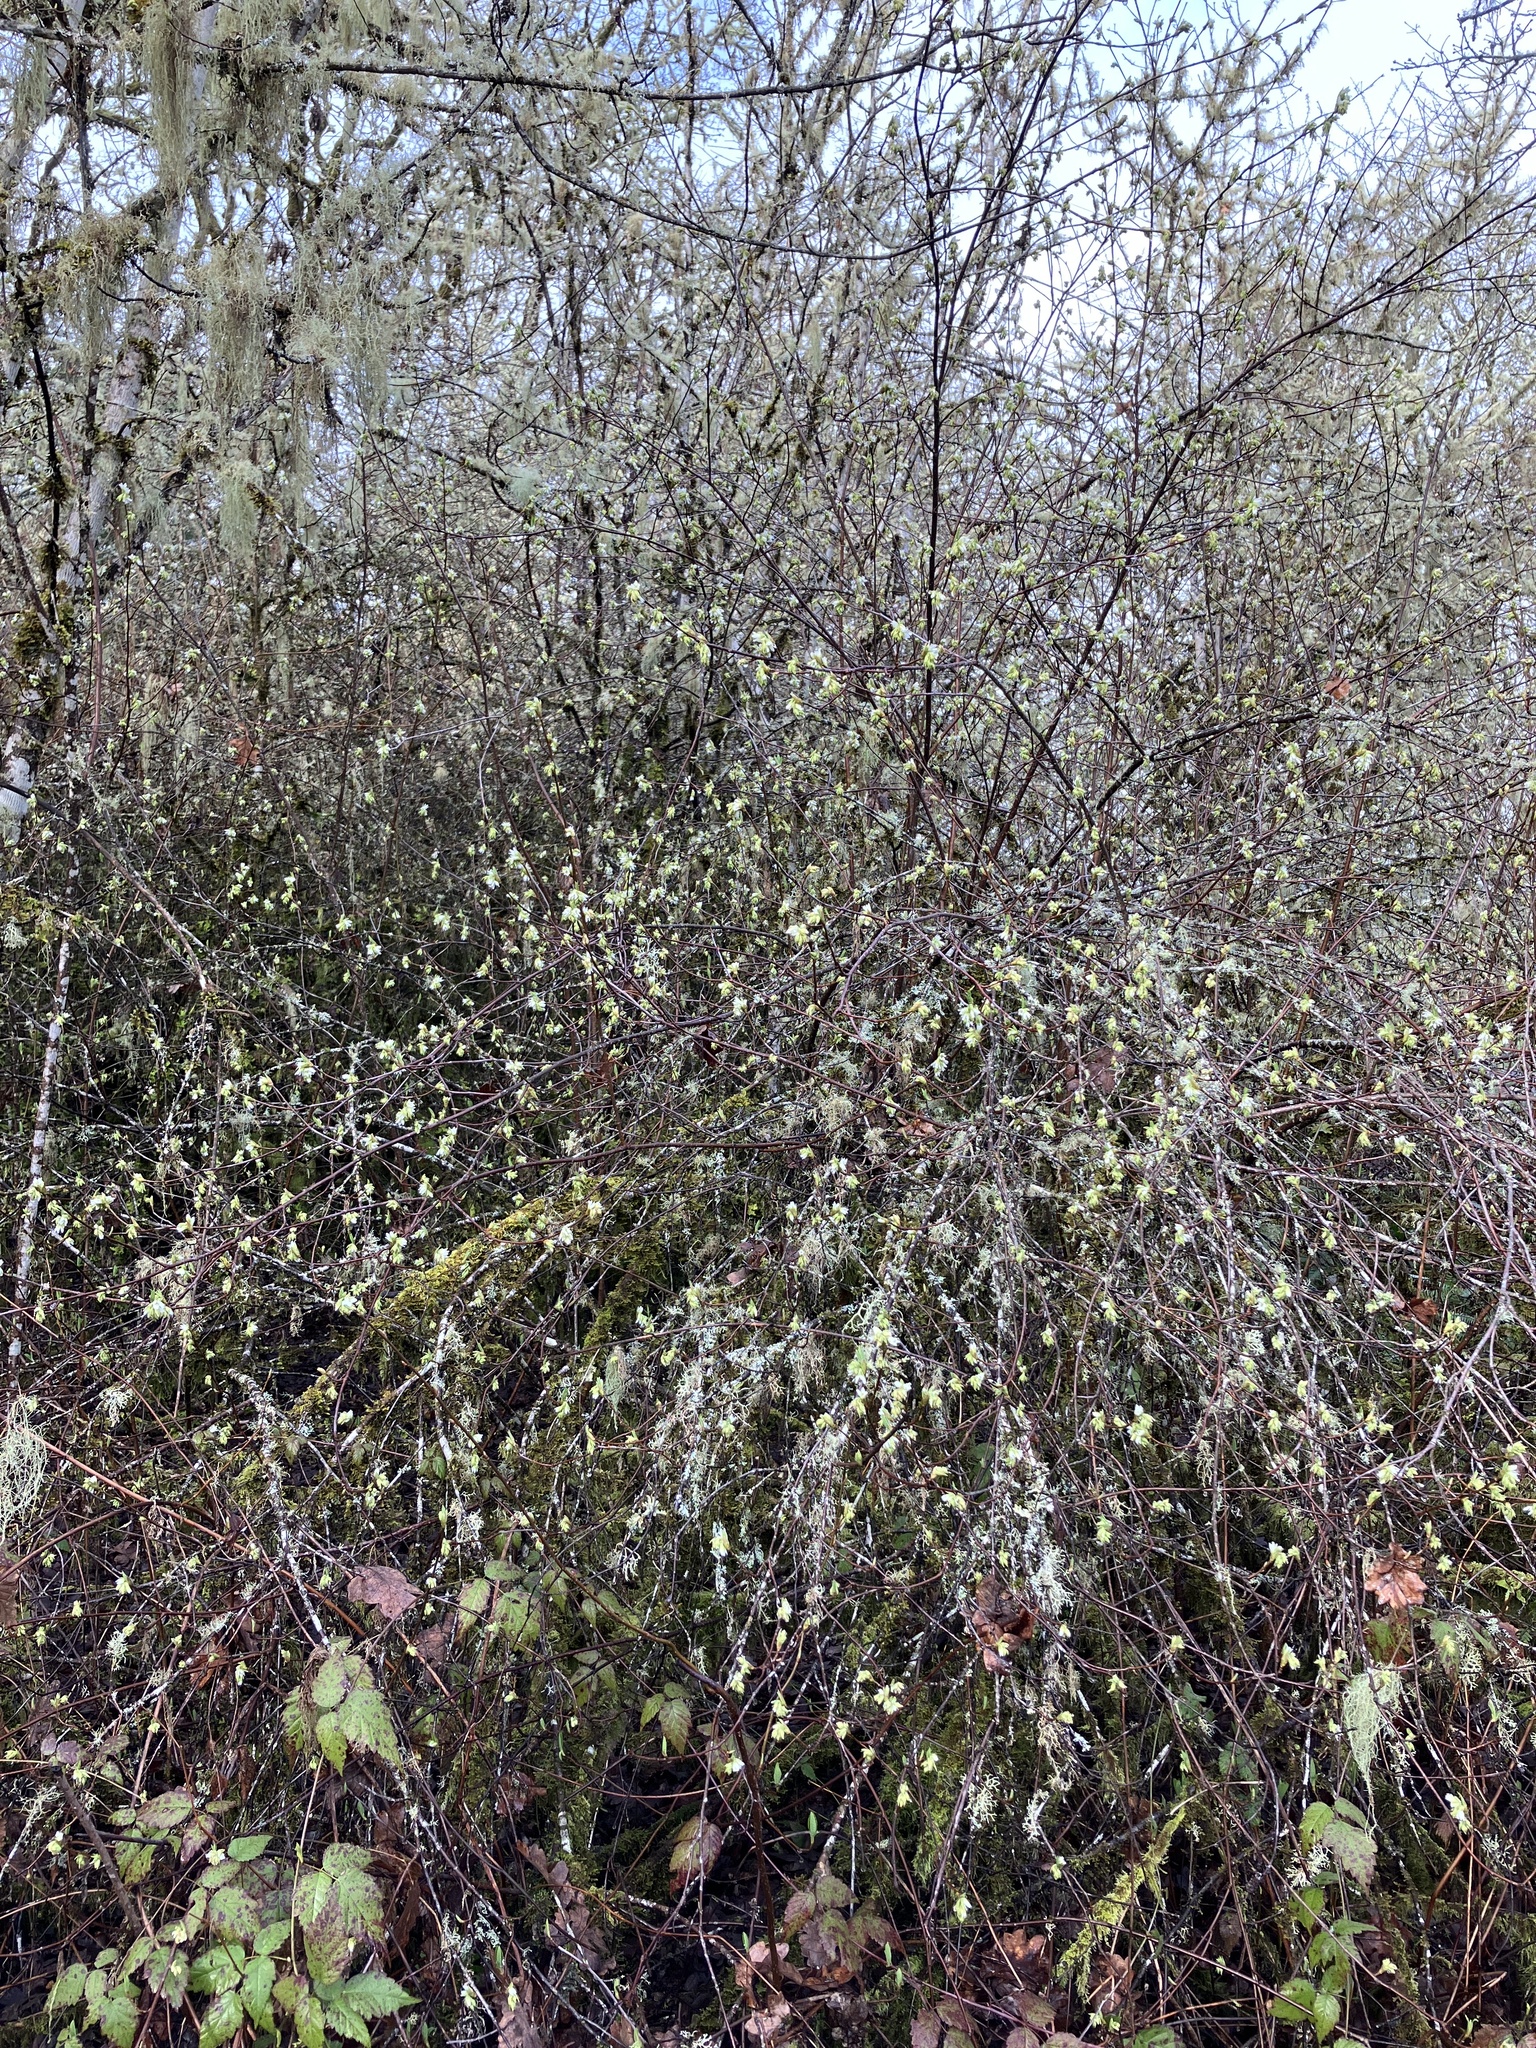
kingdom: Plantae
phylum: Tracheophyta
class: Magnoliopsida
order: Rosales
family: Rosaceae
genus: Oemleria
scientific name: Oemleria cerasiformis
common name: Osoberry
